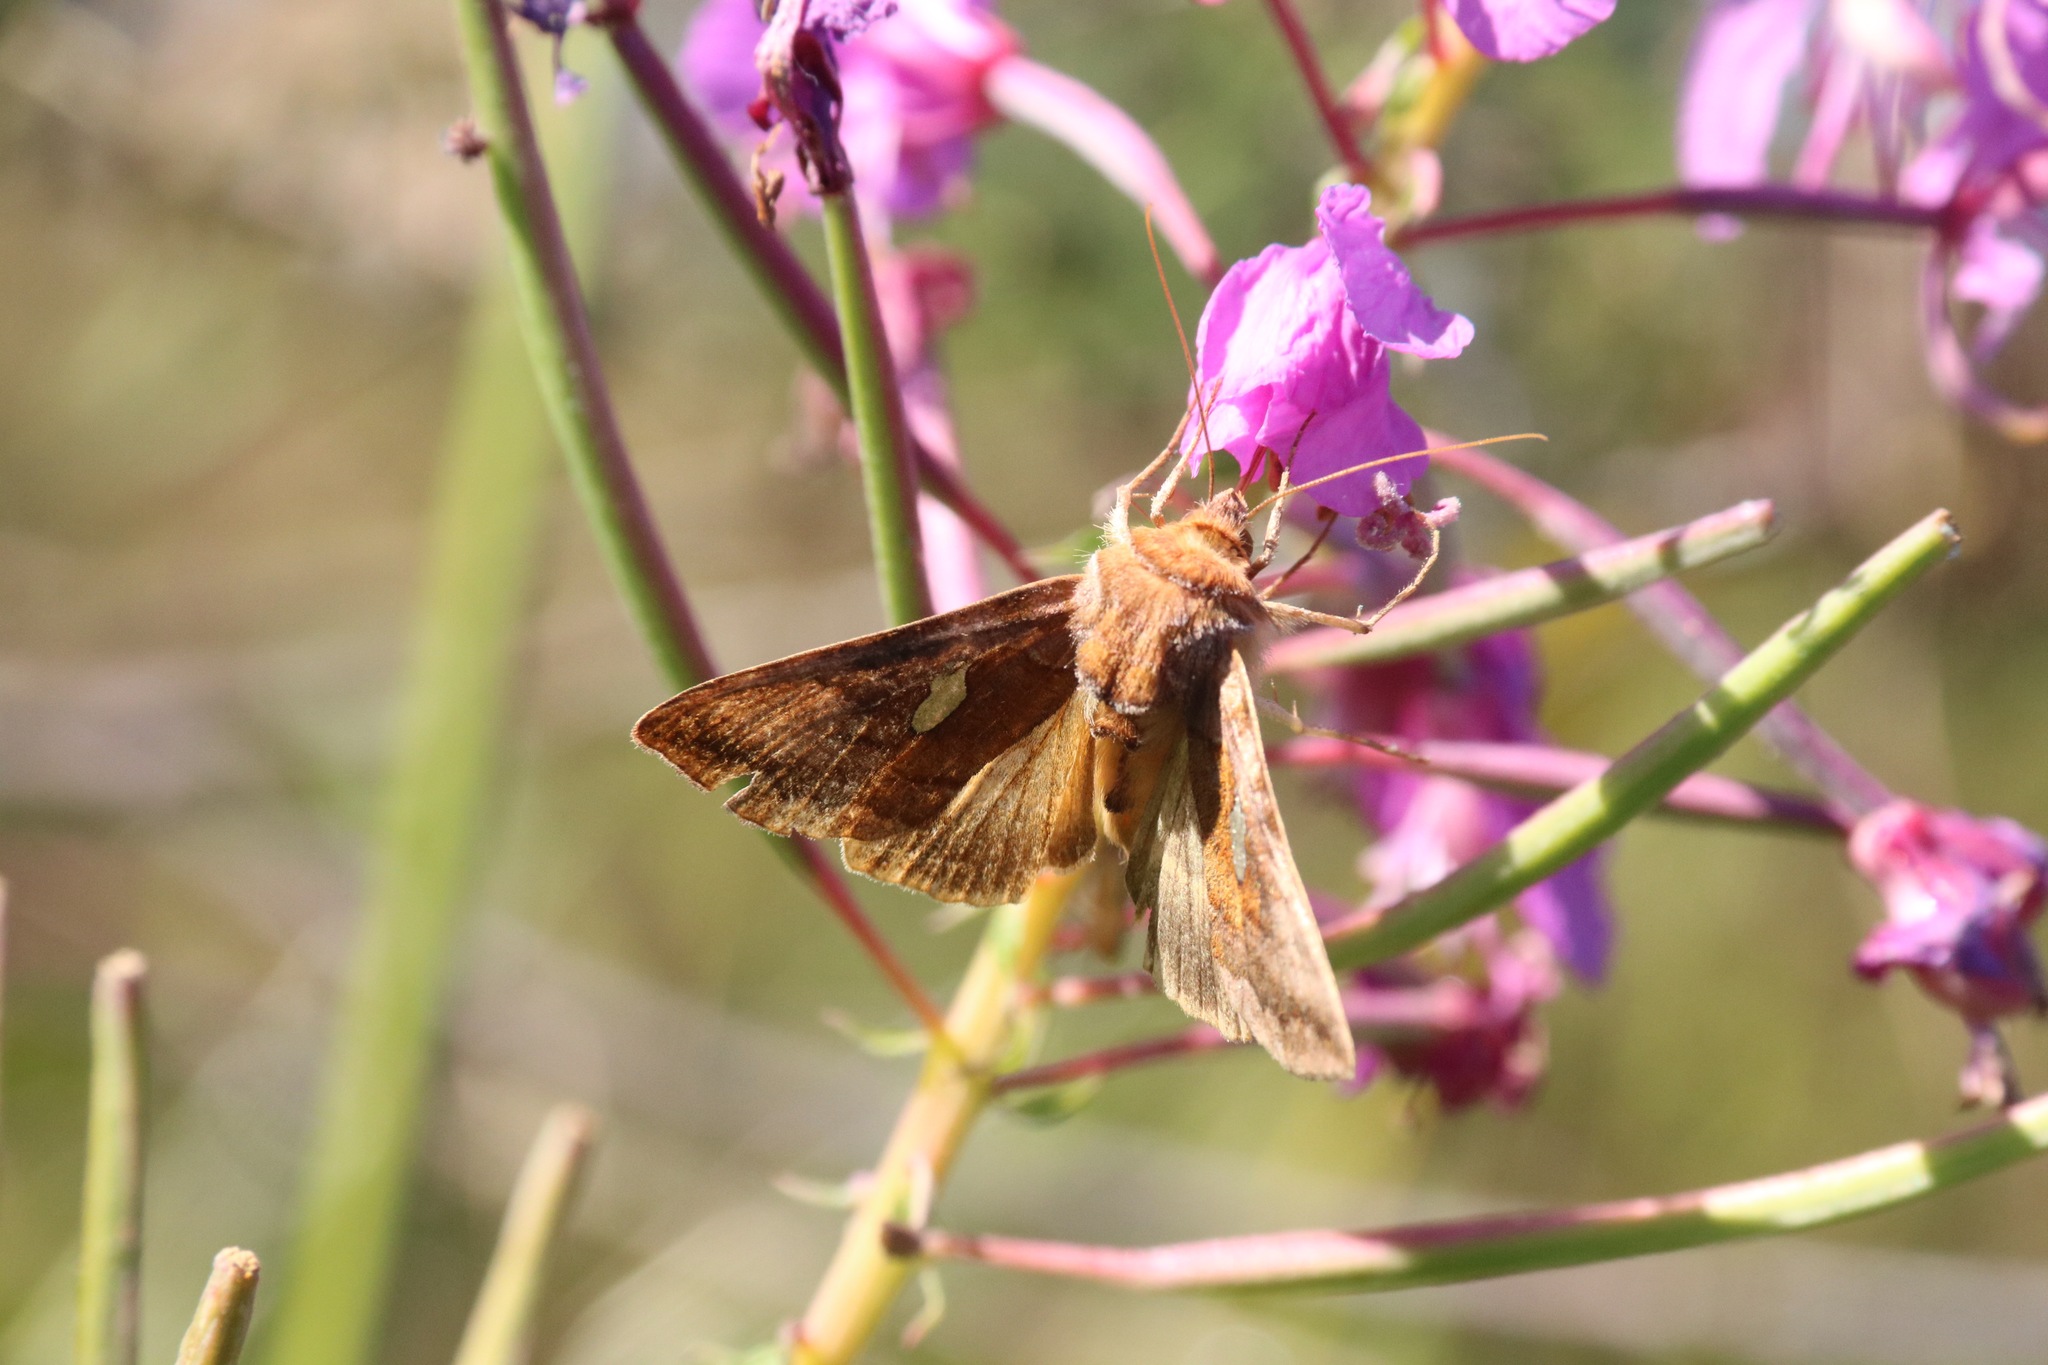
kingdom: Animalia
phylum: Arthropoda
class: Insecta
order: Lepidoptera
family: Noctuidae
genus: Autographa
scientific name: Autographa excelsa
